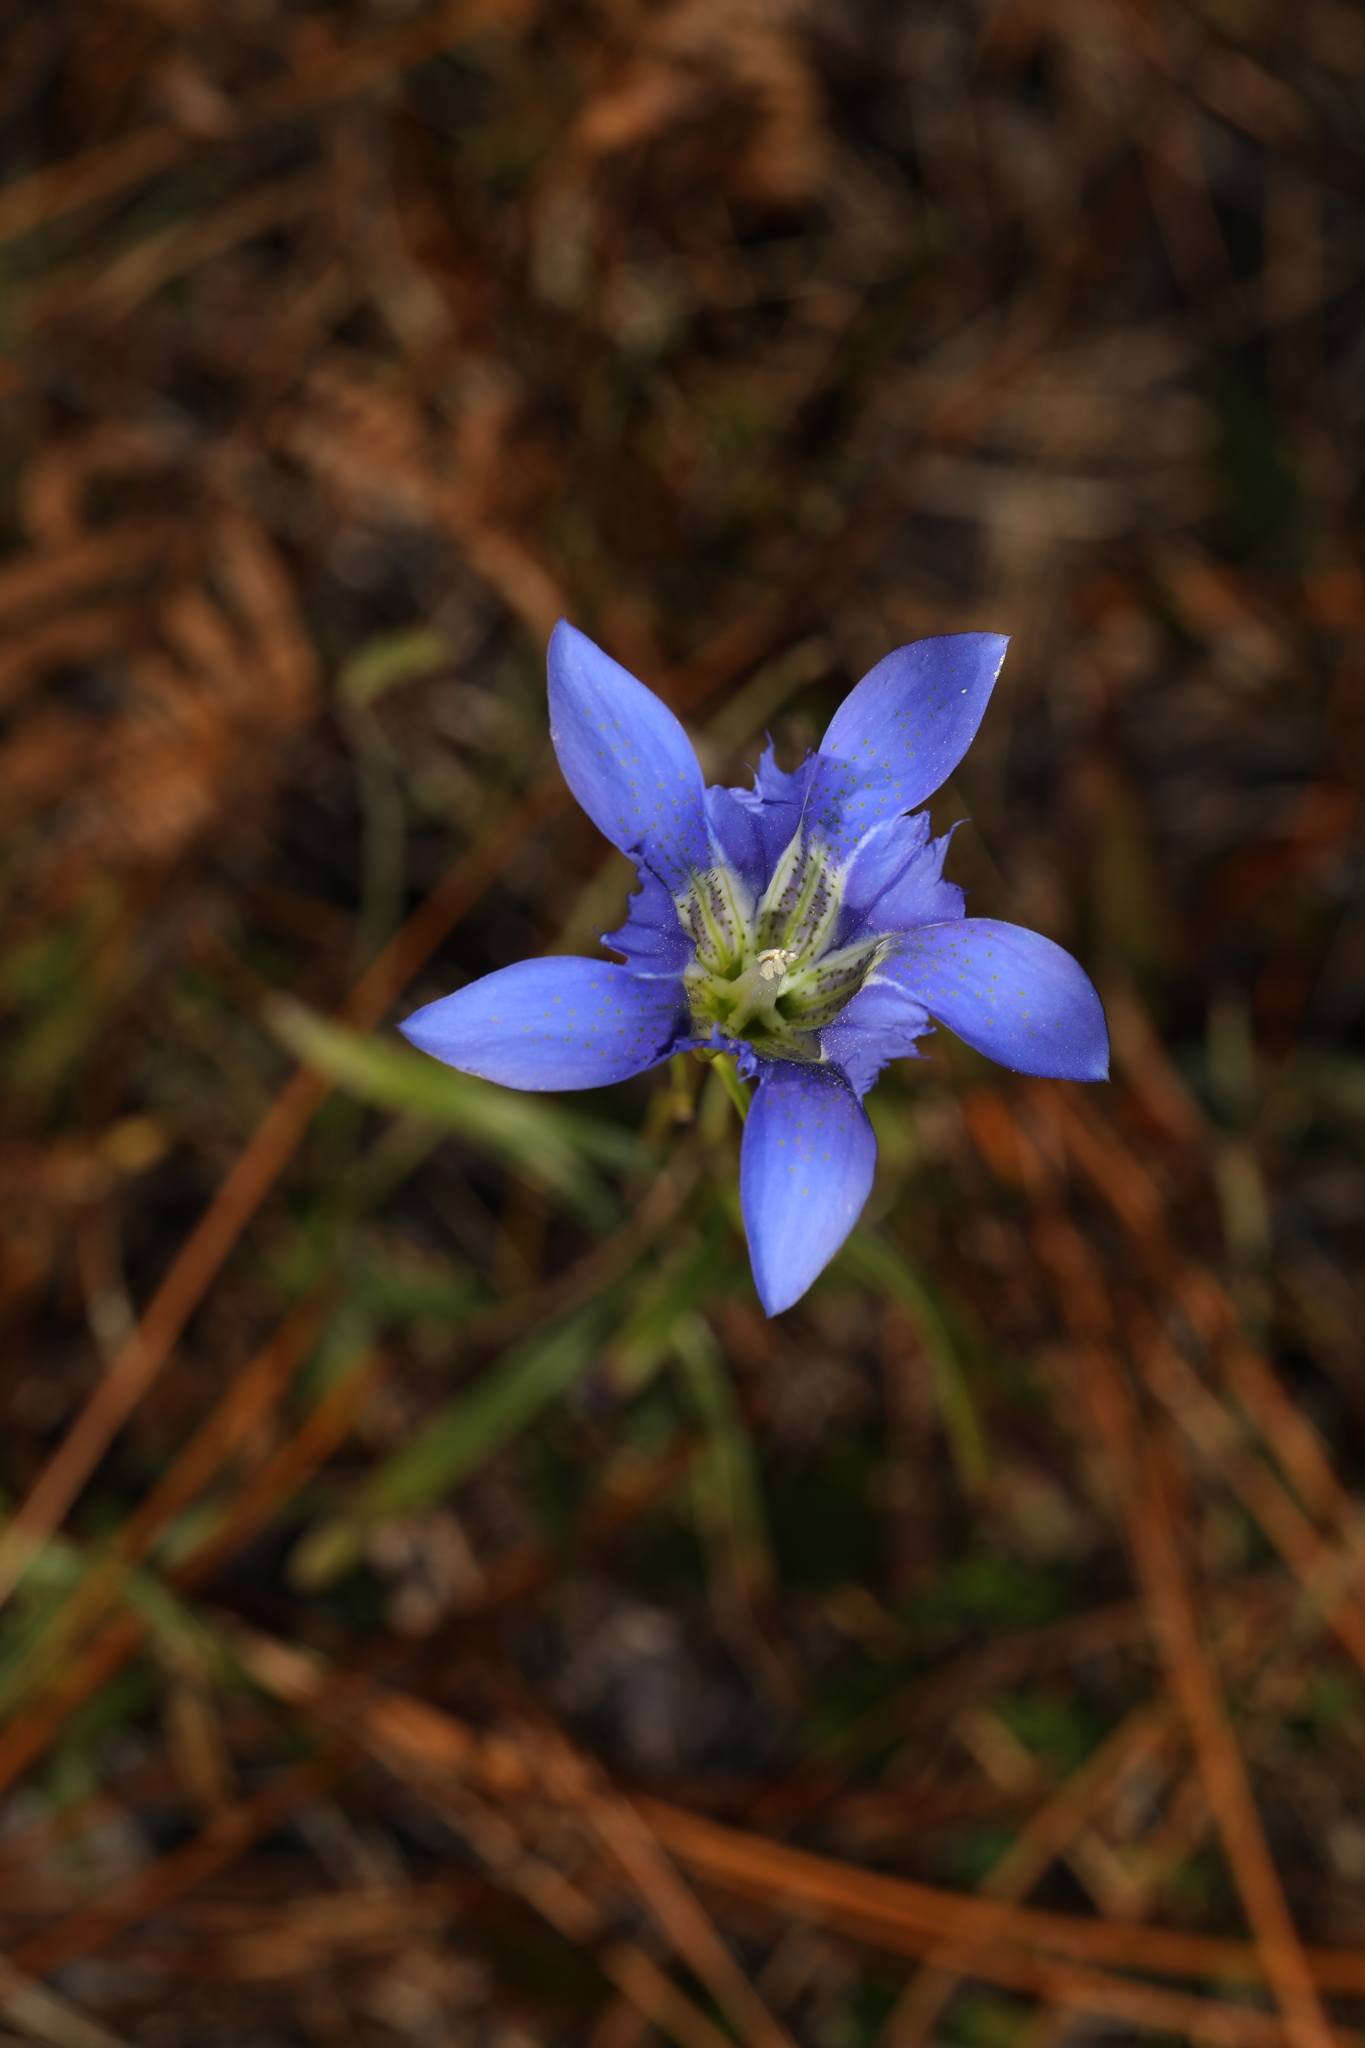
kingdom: Plantae
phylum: Tracheophyta
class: Magnoliopsida
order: Gentianales
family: Gentianaceae
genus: Gentiana
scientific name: Gentiana autumnalis
